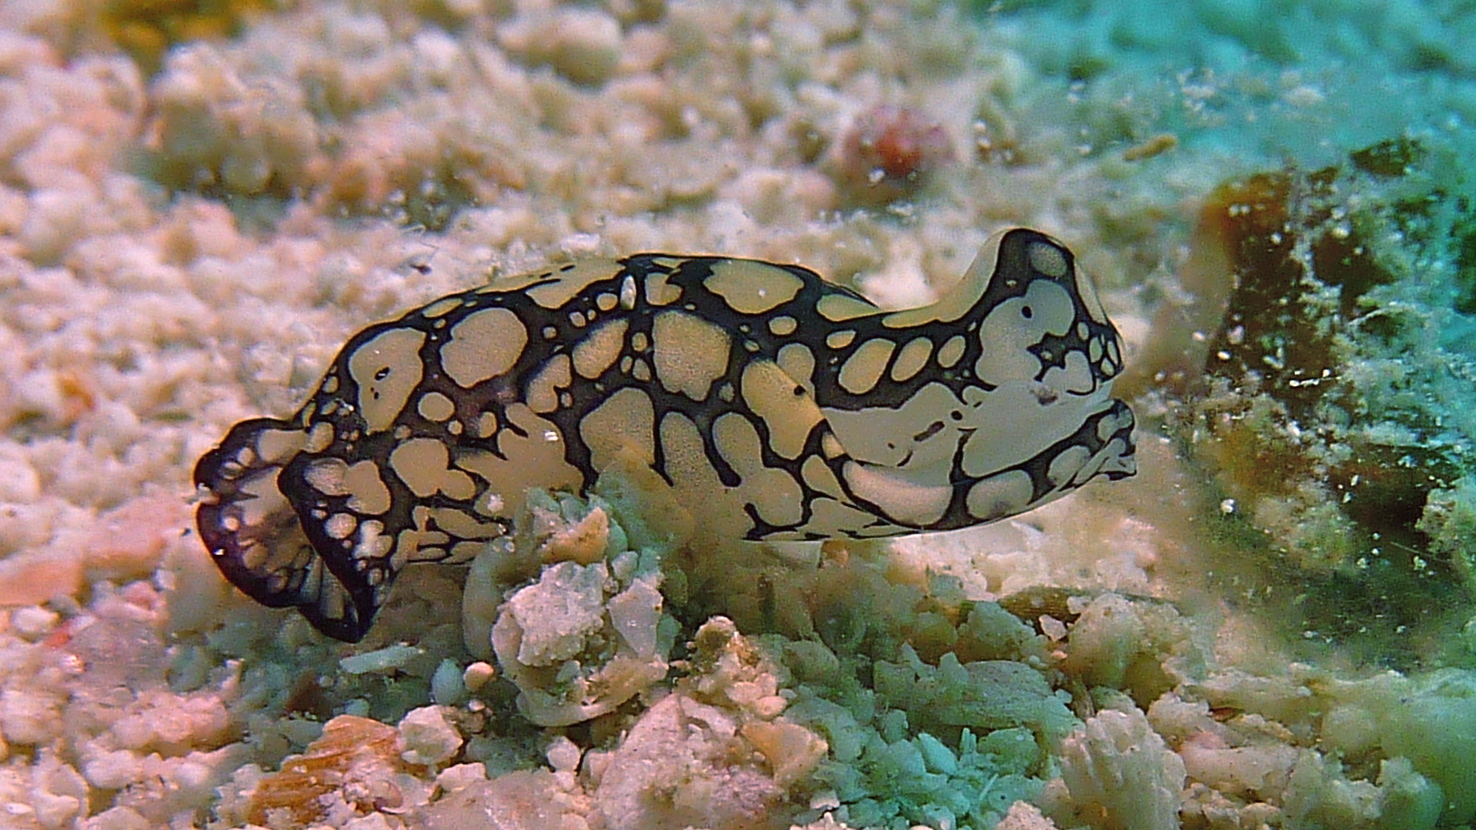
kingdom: Animalia
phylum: Mollusca
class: Gastropoda
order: Cephalaspidea
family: Aglajidae
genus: Tubulophilinopsis
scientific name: Tubulophilinopsis pilsbryi
